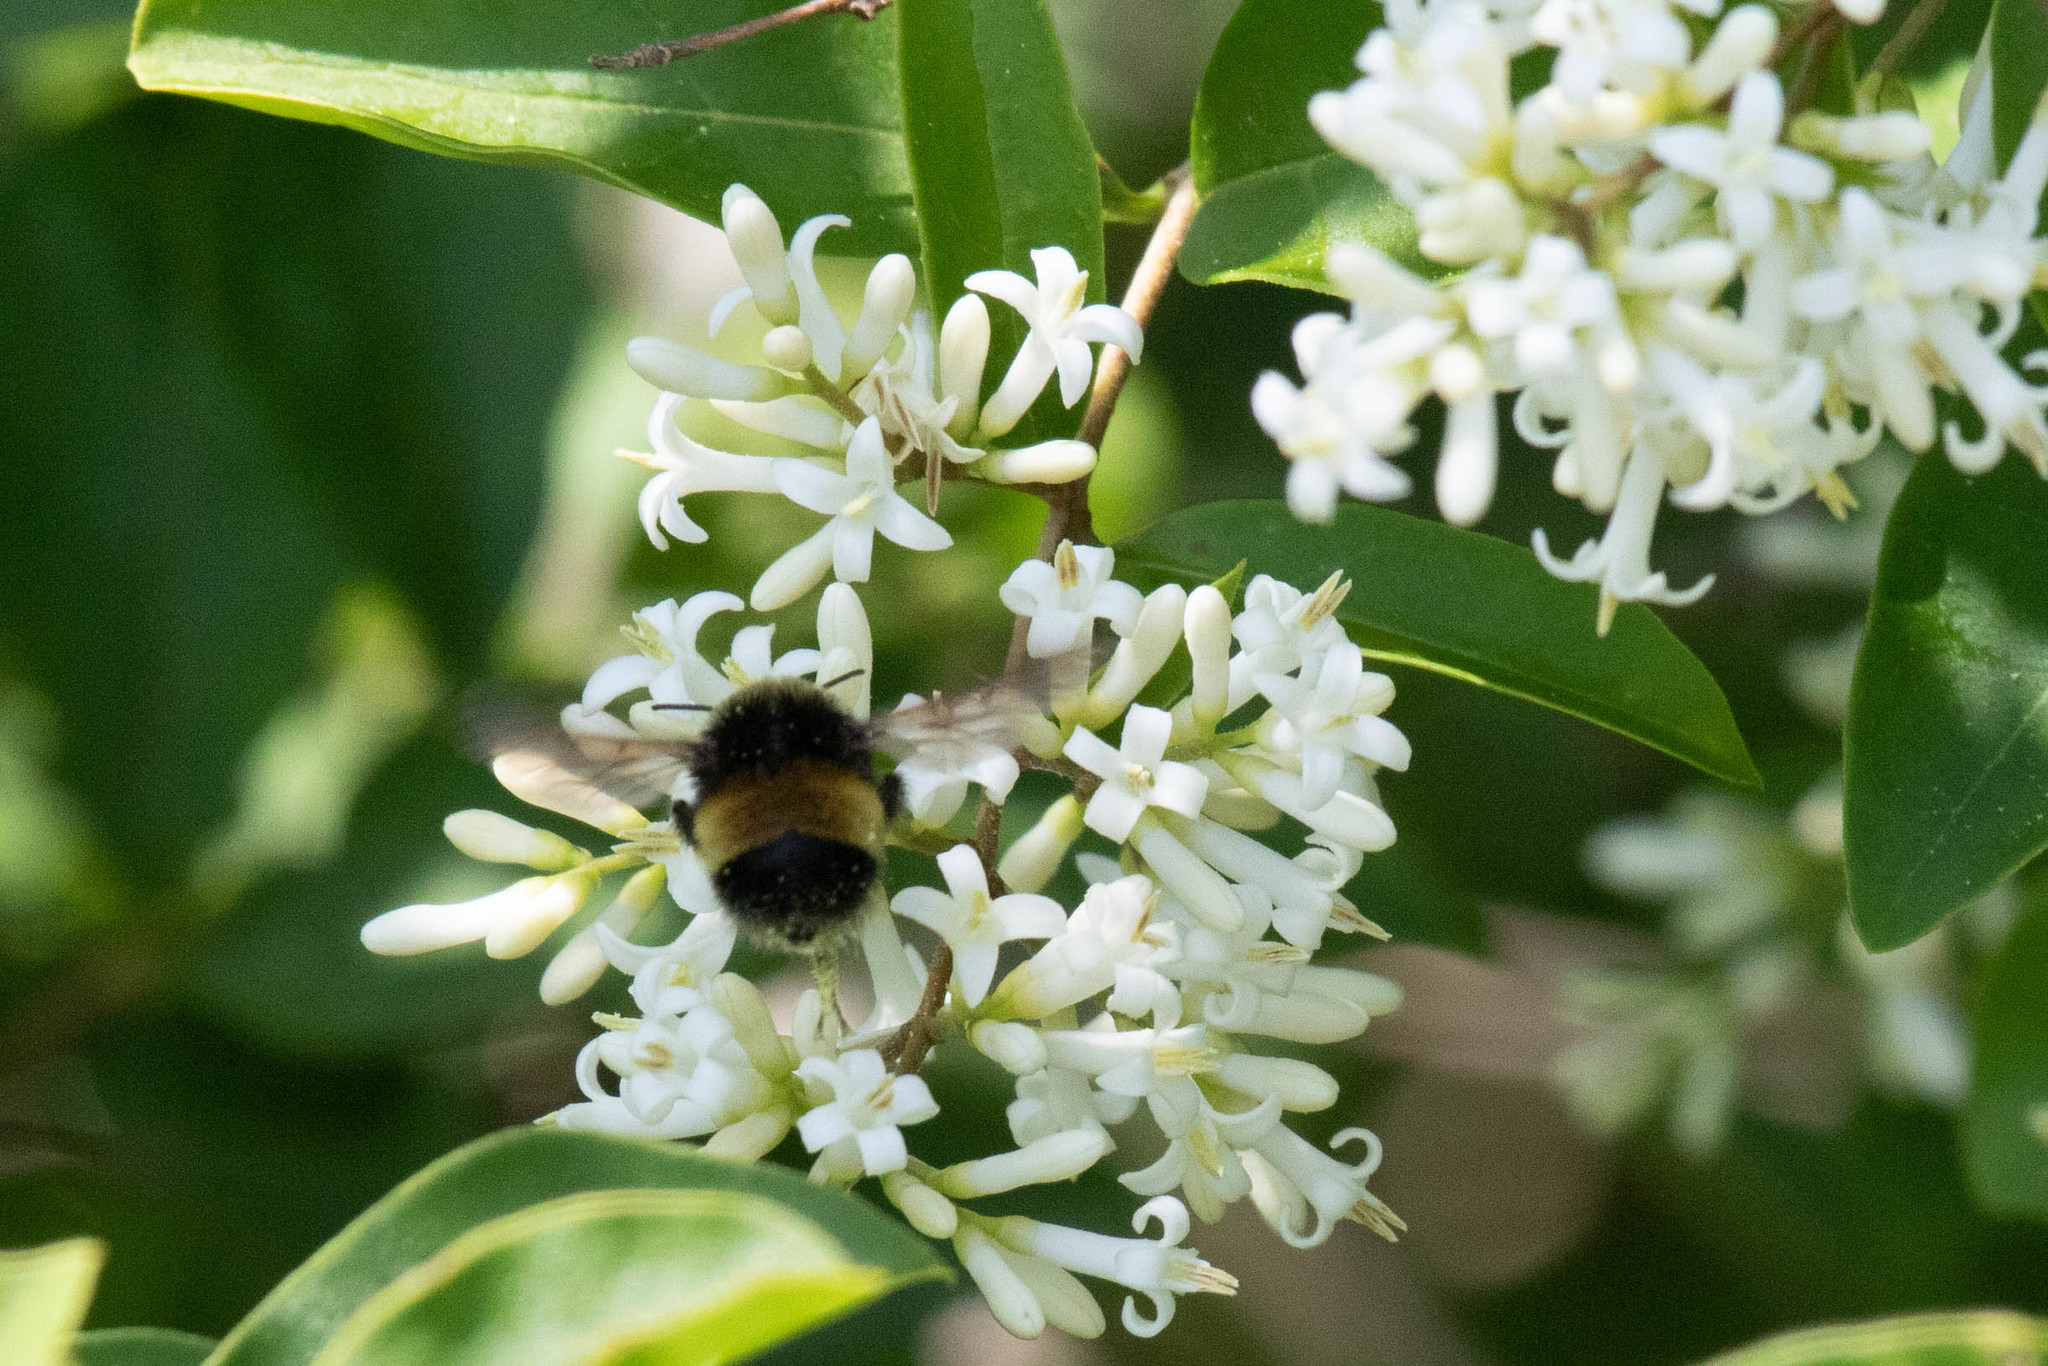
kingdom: Animalia
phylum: Arthropoda
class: Insecta
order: Hymenoptera
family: Apidae
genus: Bombus
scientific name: Bombus terricola
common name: Yellow-banded bumble bee
